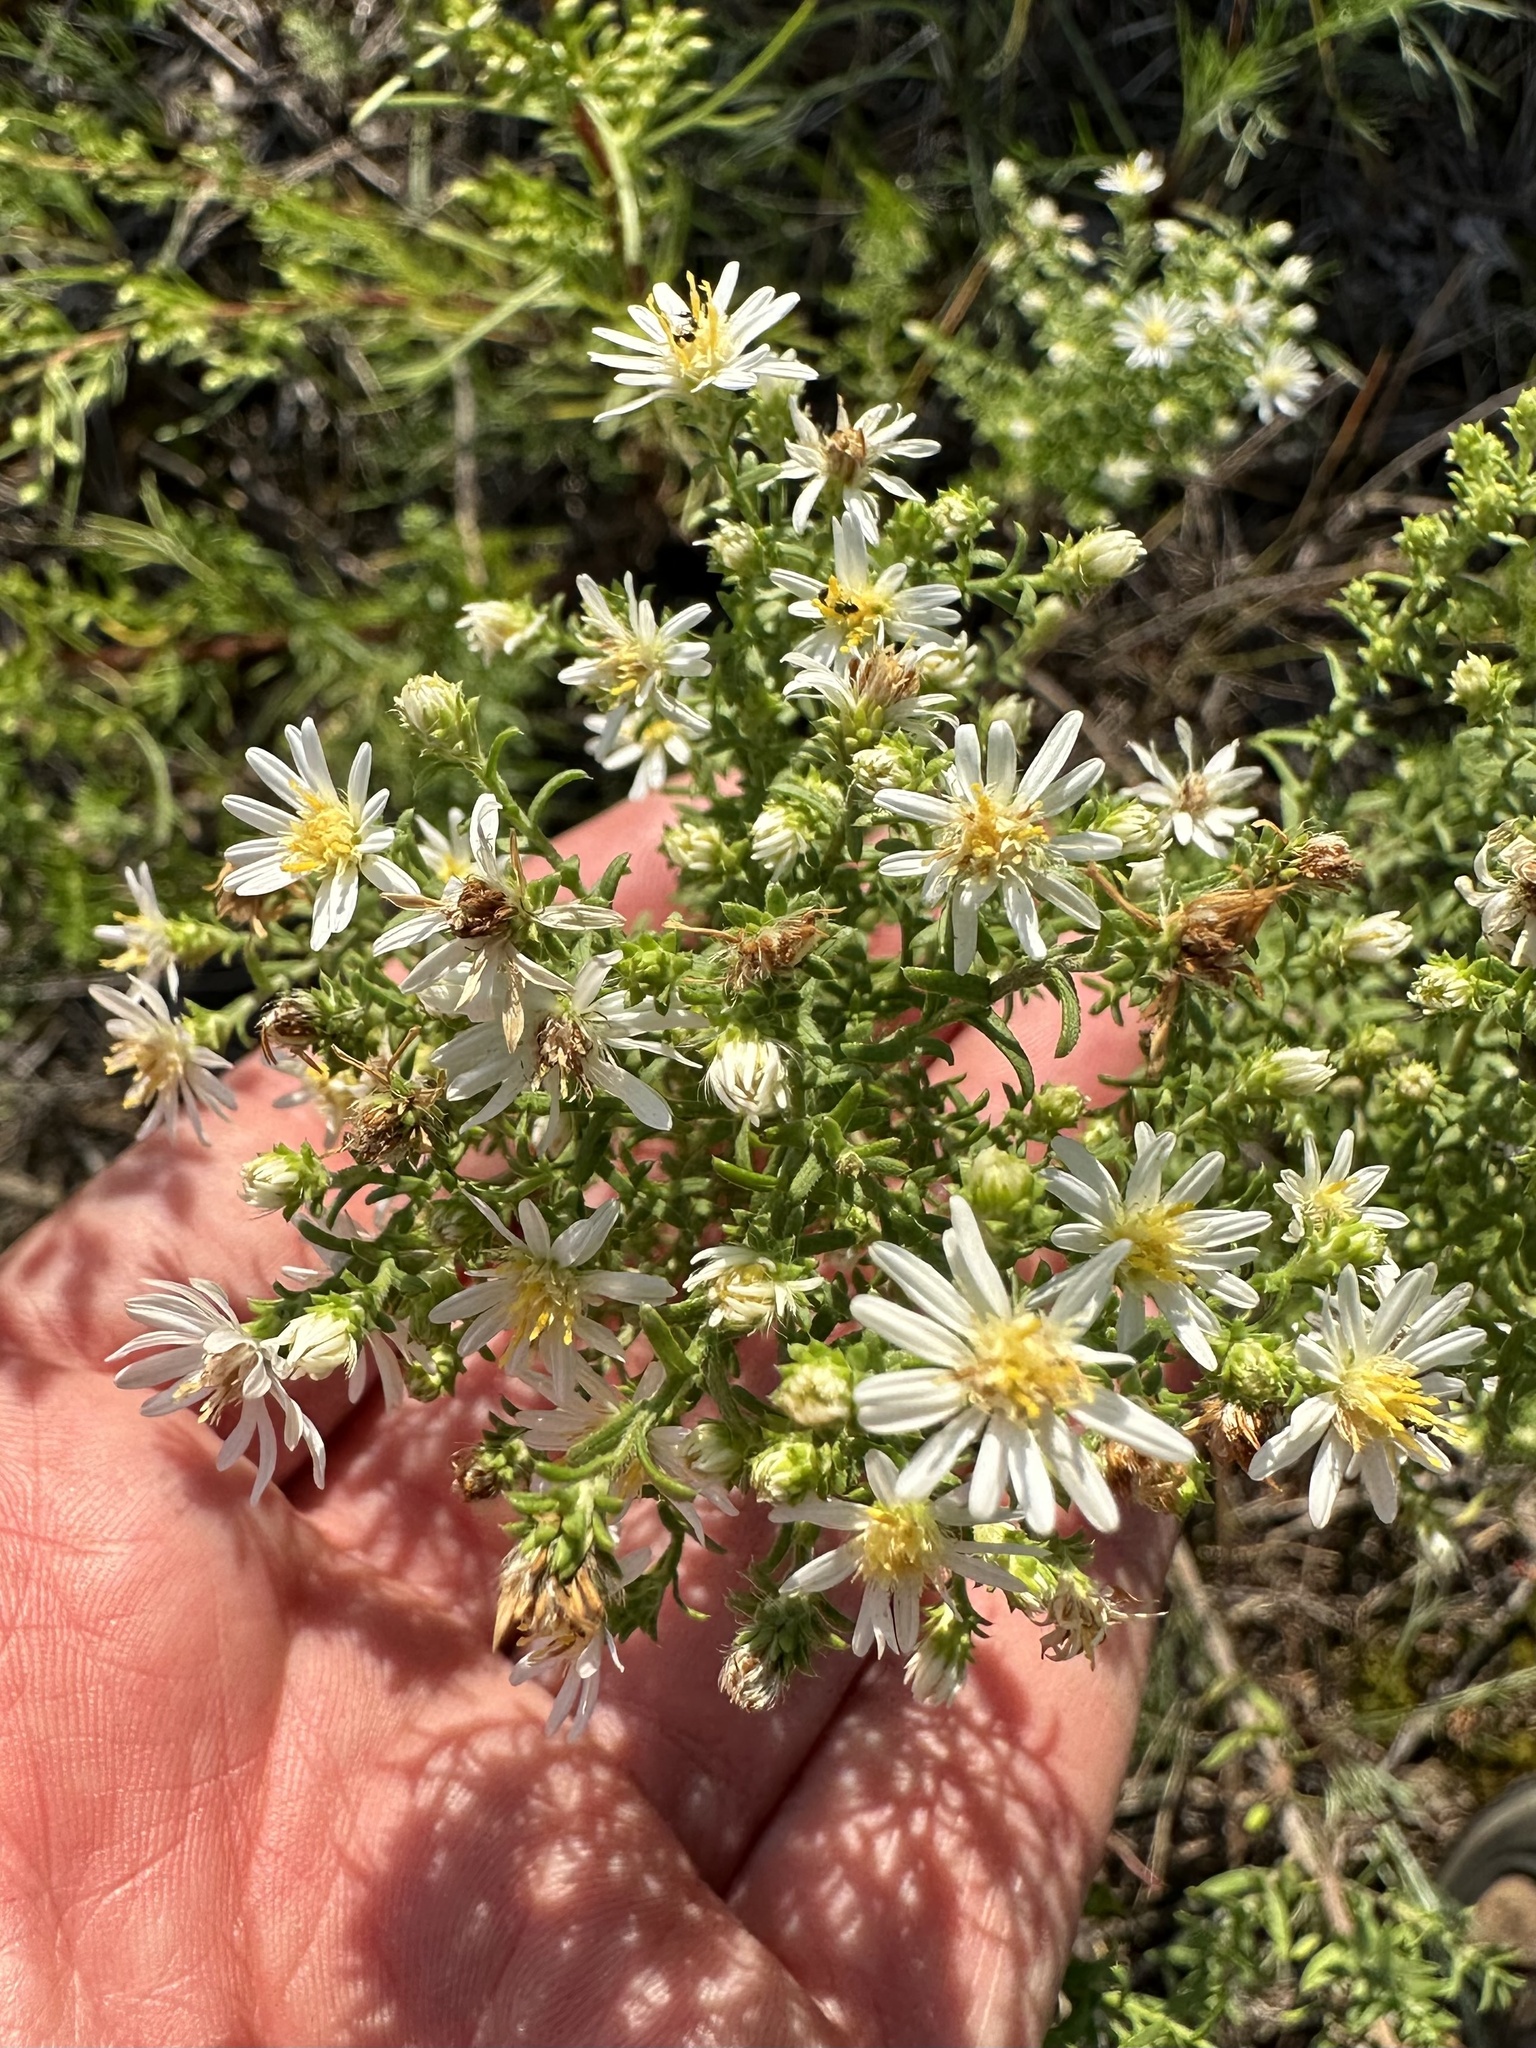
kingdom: Plantae
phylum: Tracheophyta
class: Magnoliopsida
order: Asterales
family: Asteraceae
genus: Symphyotrichum
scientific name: Symphyotrichum ericoides
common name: Heath aster
